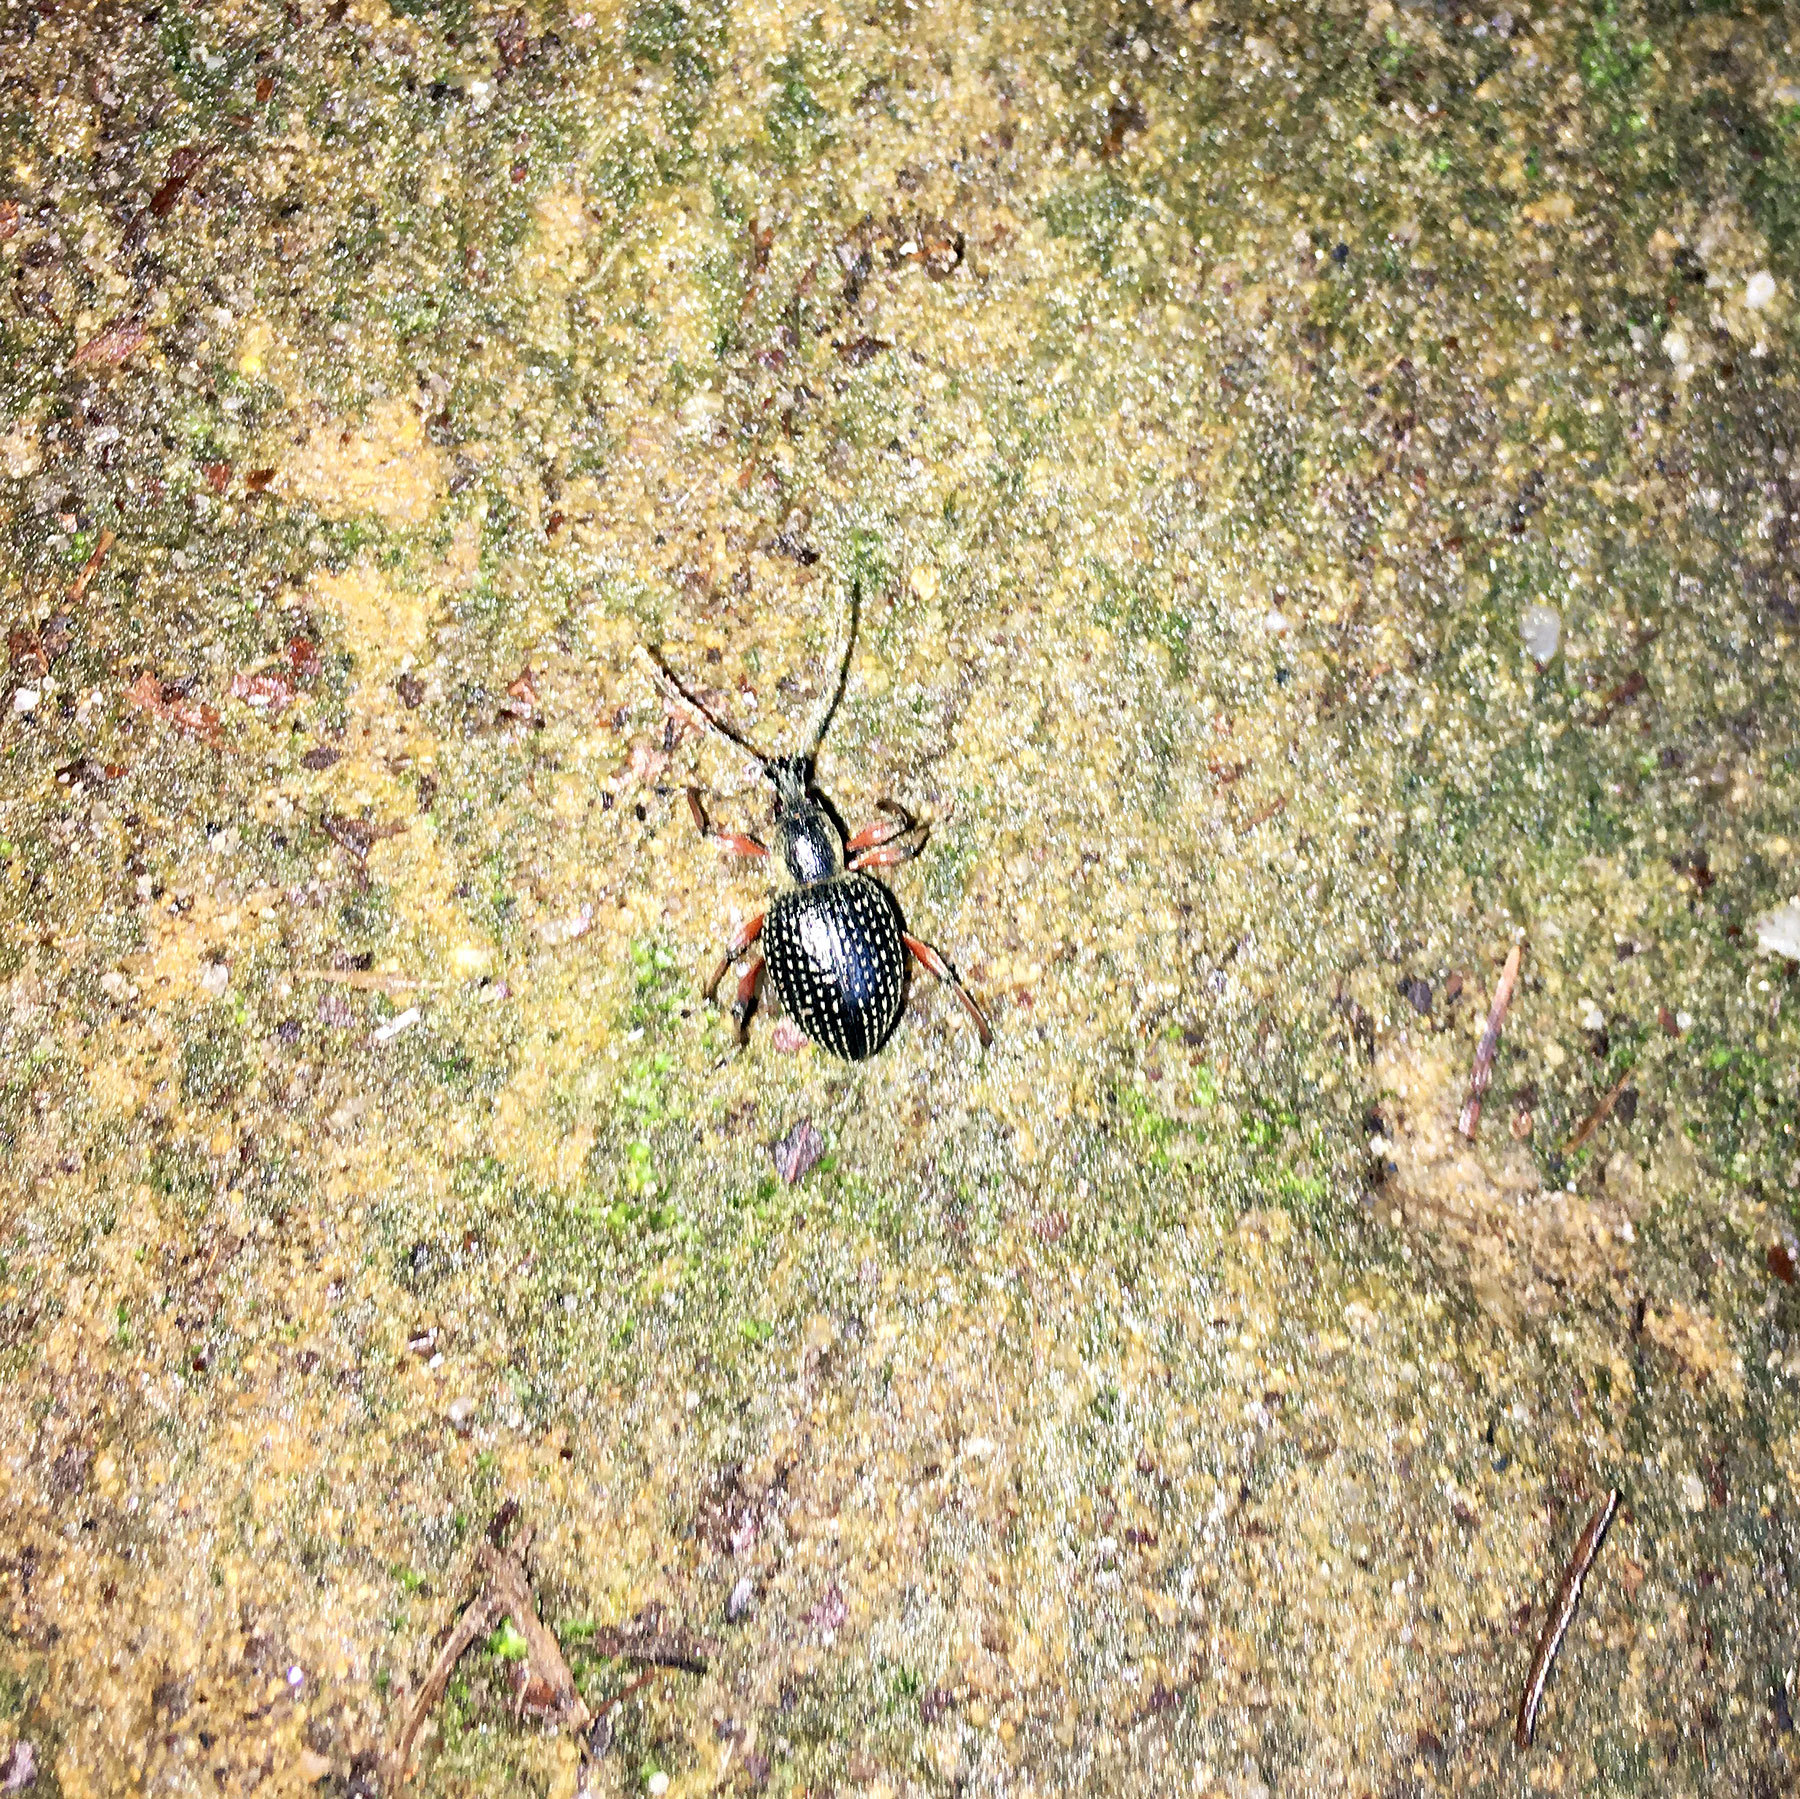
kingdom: Animalia
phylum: Arthropoda
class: Insecta
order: Coleoptera
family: Curculionidae
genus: Otiorhynchus
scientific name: Otiorhynchus coecus
